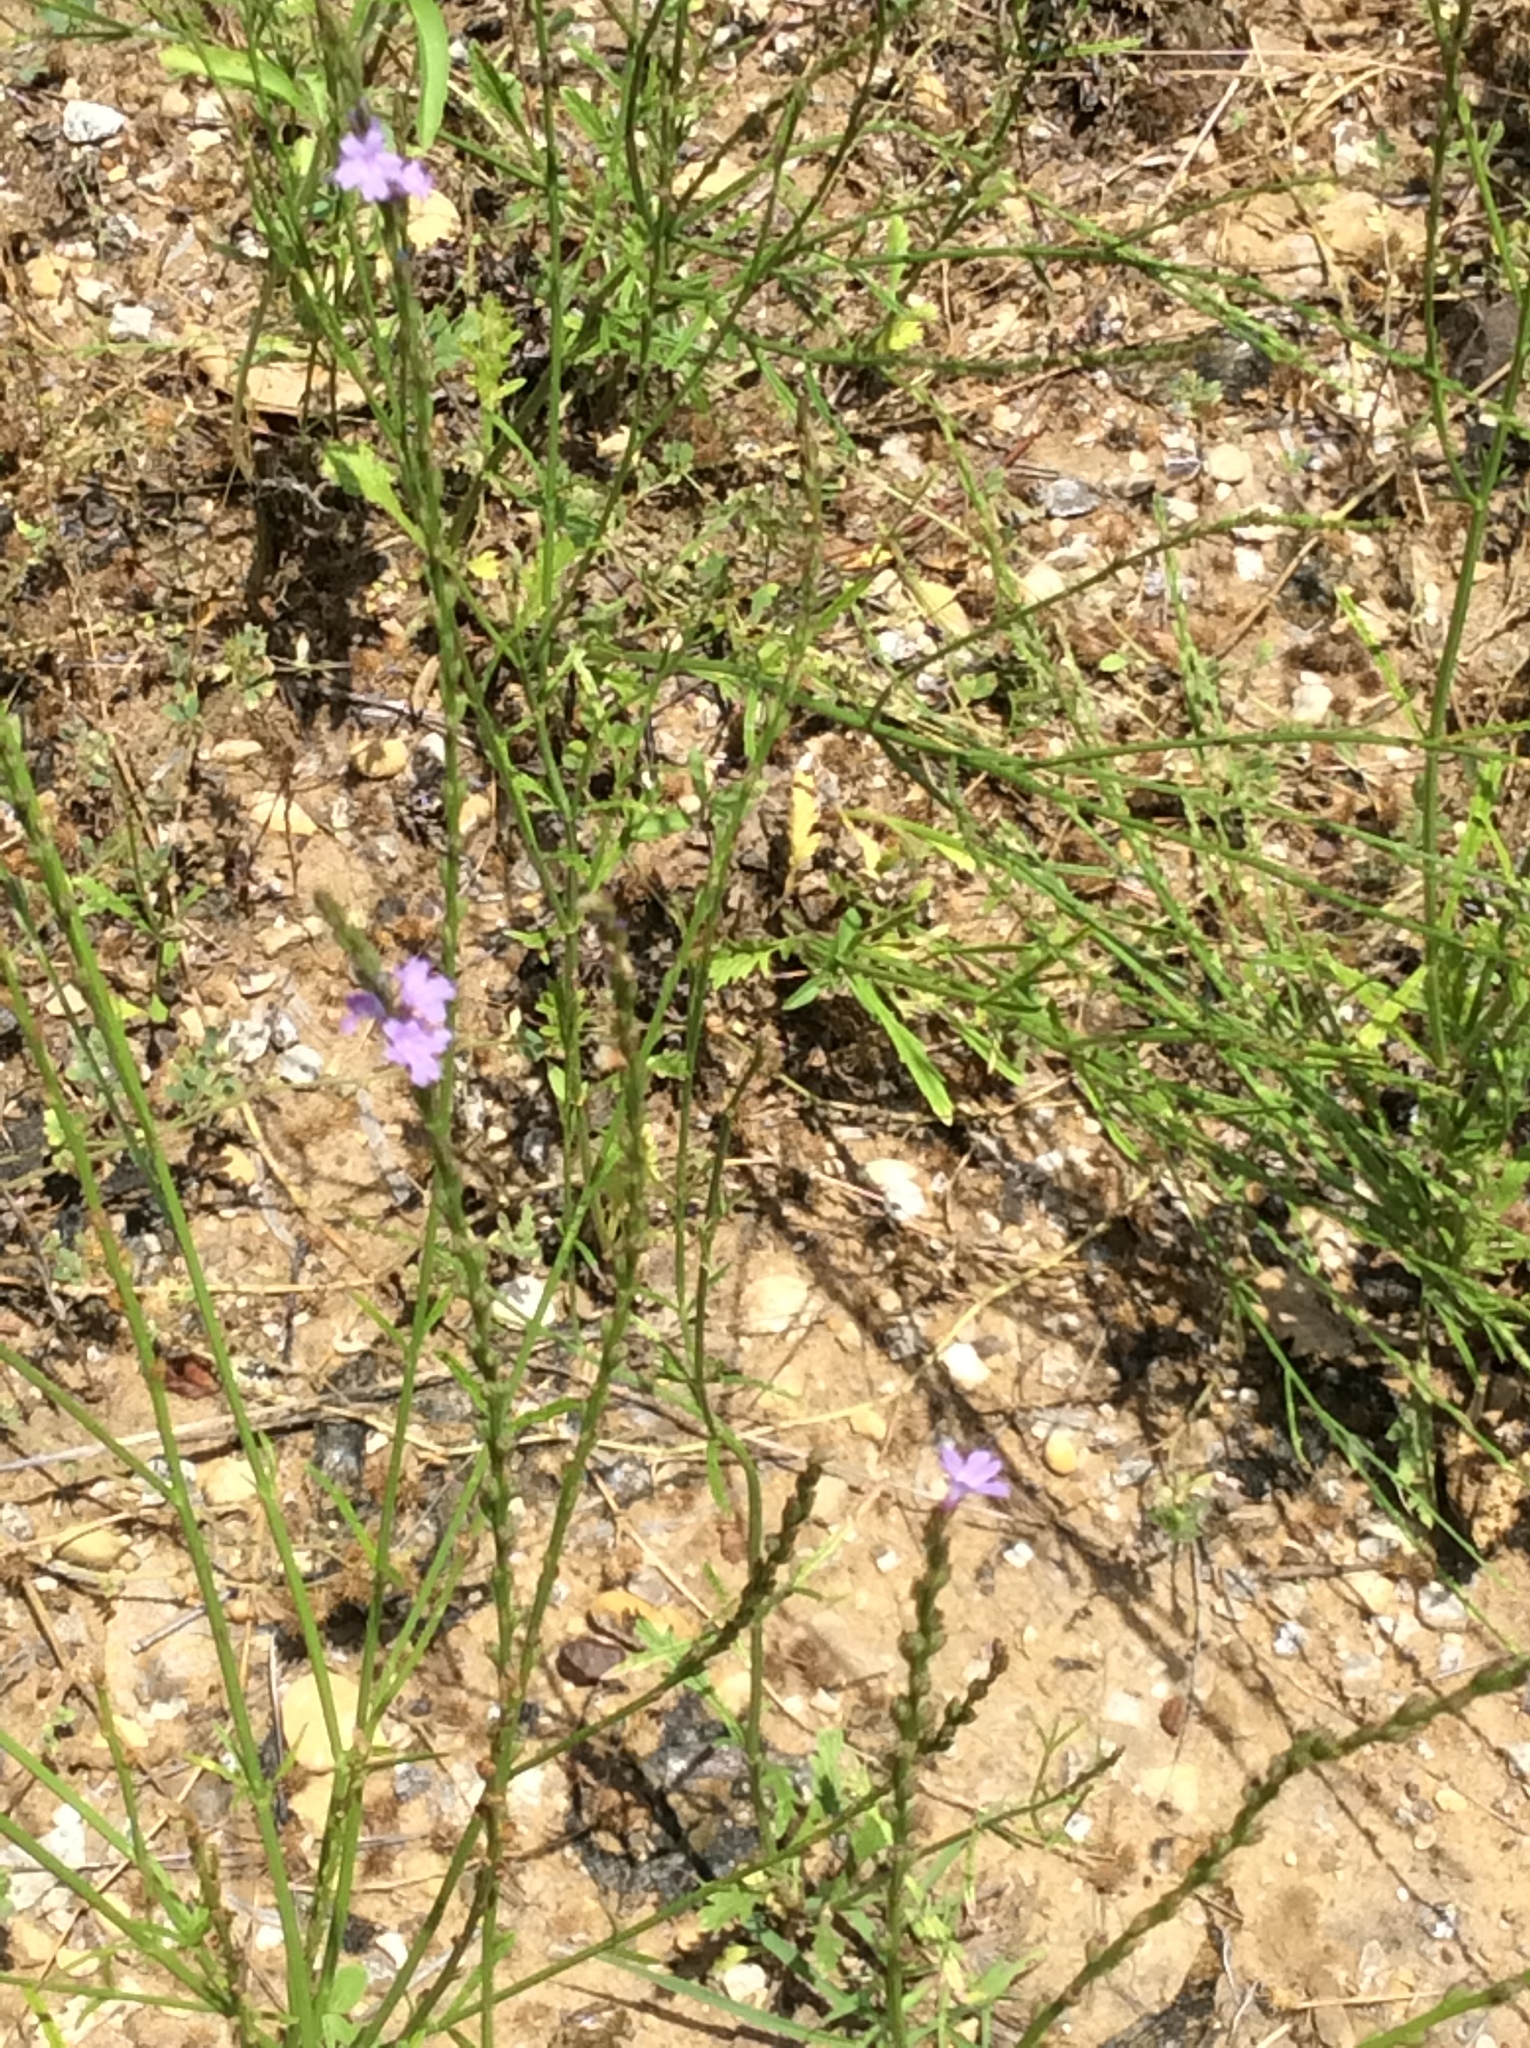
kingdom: Plantae
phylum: Tracheophyta
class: Magnoliopsida
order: Lamiales
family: Verbenaceae
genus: Verbena
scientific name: Verbena halei
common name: Texas vervain
